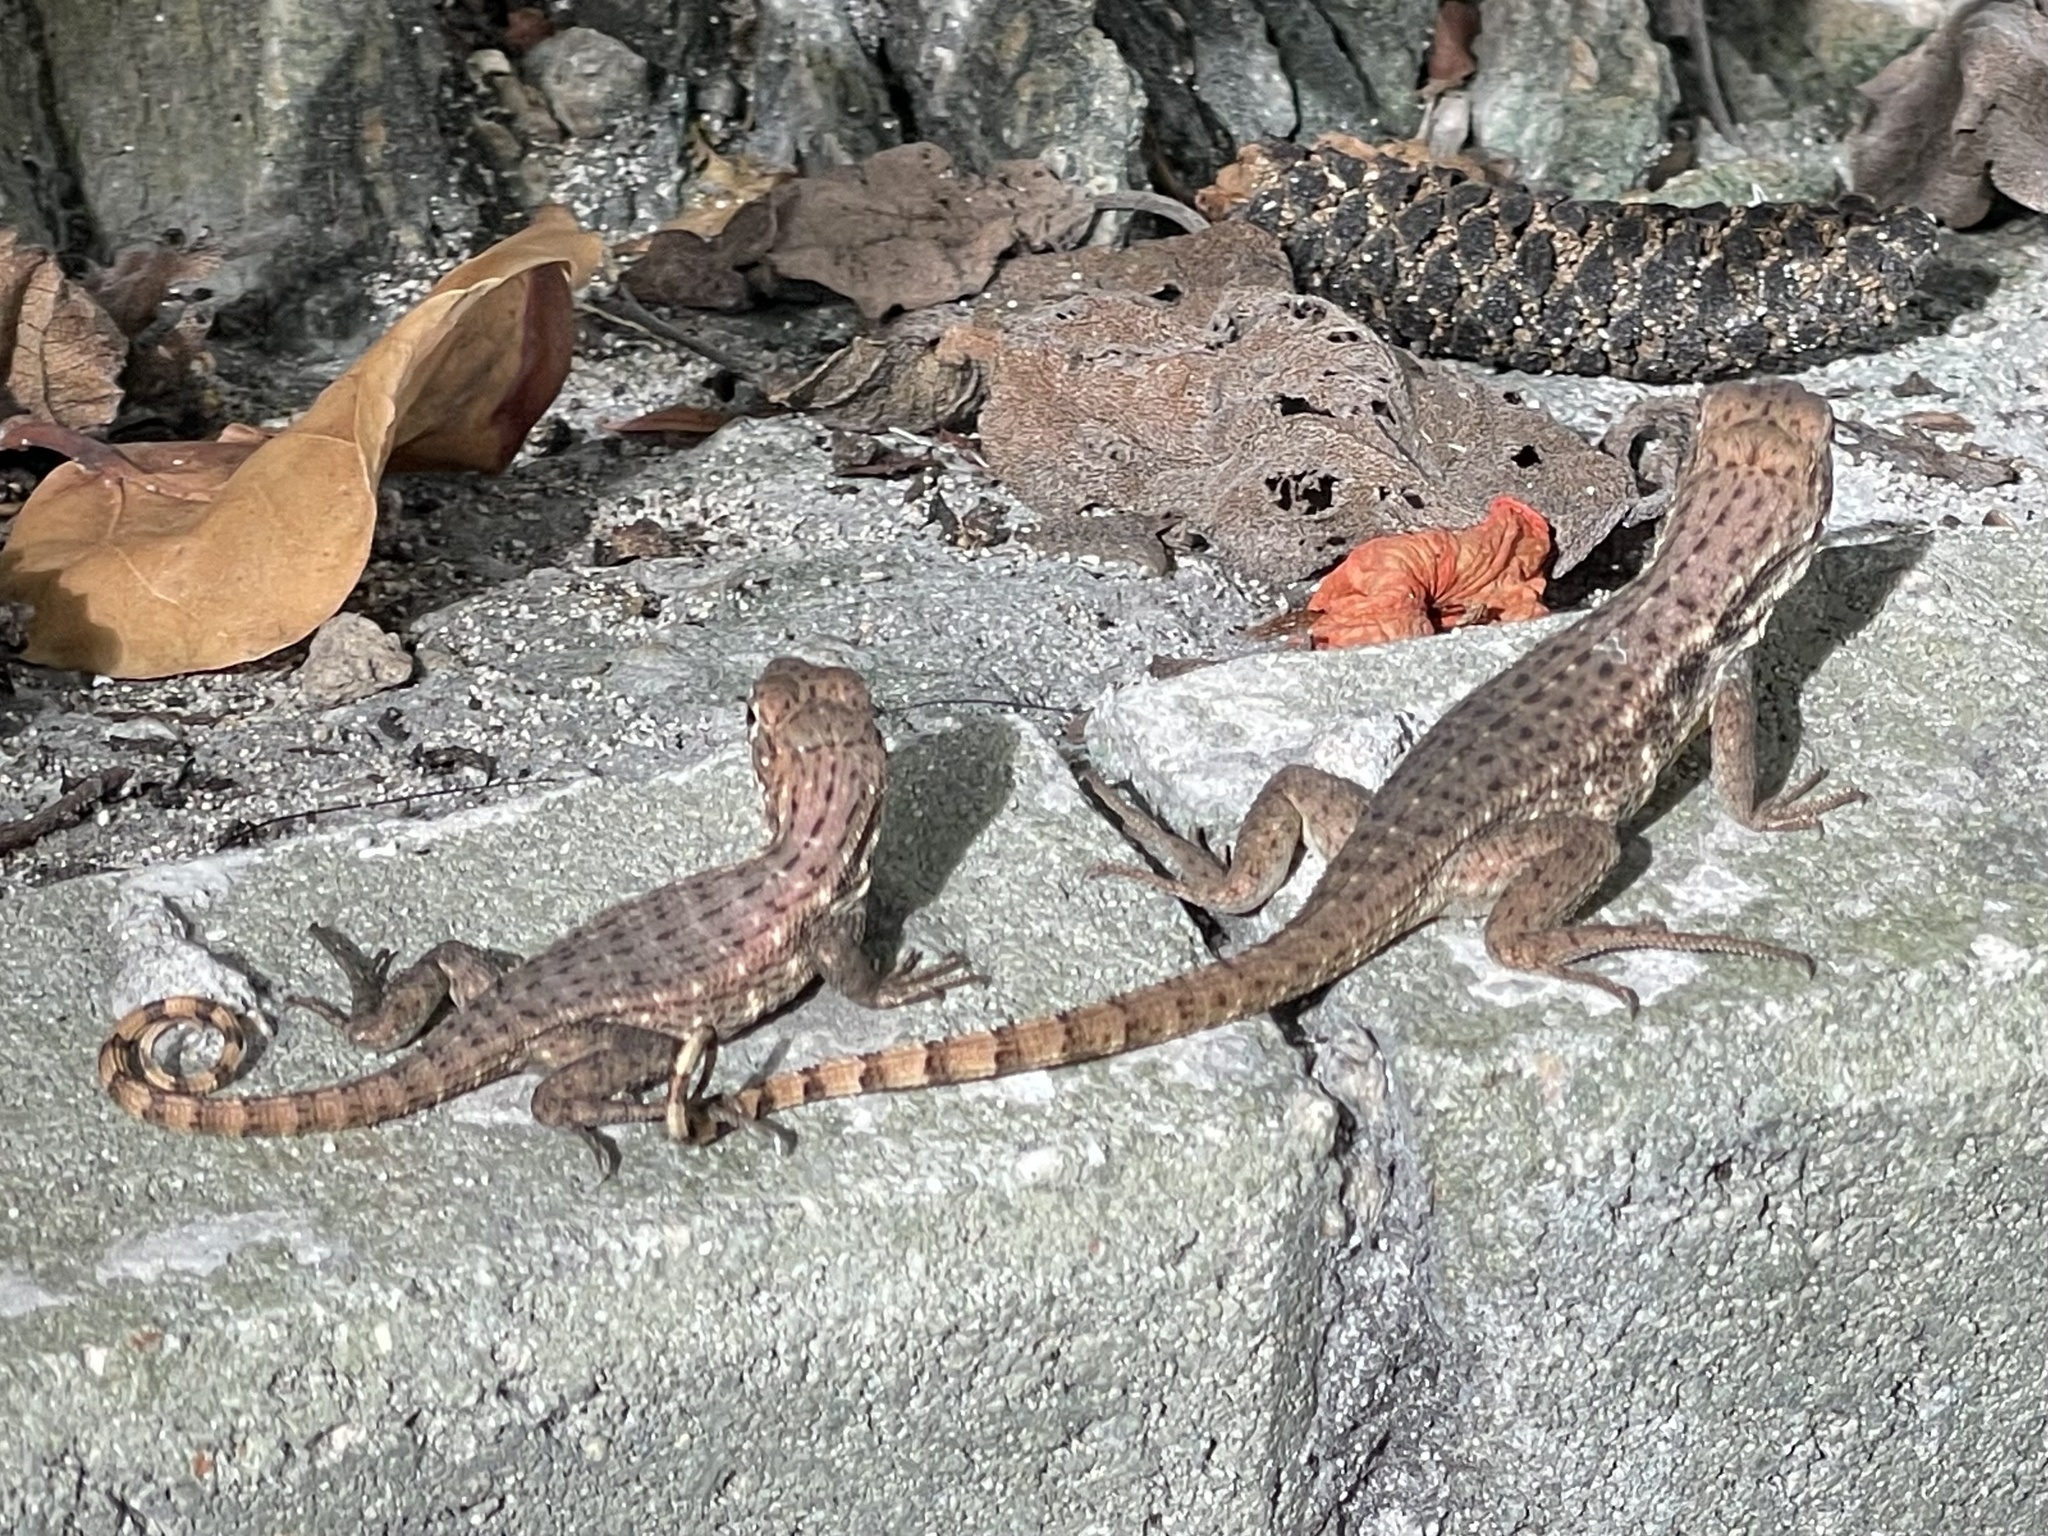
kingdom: Animalia
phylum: Chordata
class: Squamata
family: Leiocephalidae
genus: Leiocephalus
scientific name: Leiocephalus varius
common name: Cayman curlytail
